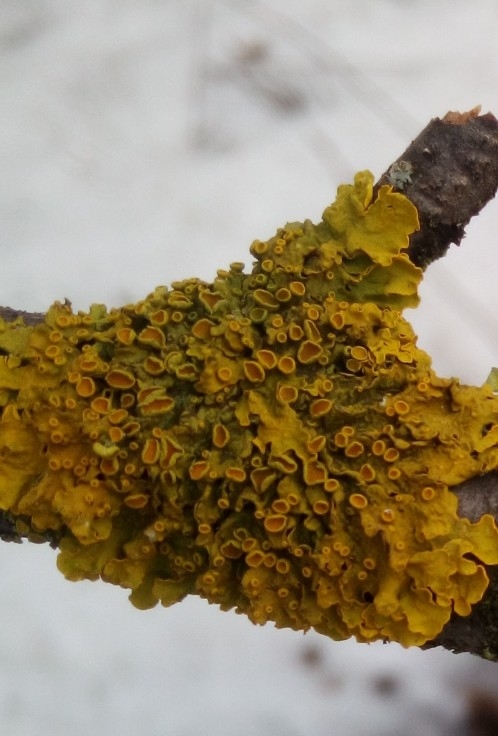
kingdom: Fungi
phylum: Ascomycota
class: Lecanoromycetes
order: Teloschistales
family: Teloschistaceae
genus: Xanthoria
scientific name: Xanthoria parietina
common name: Common orange lichen
